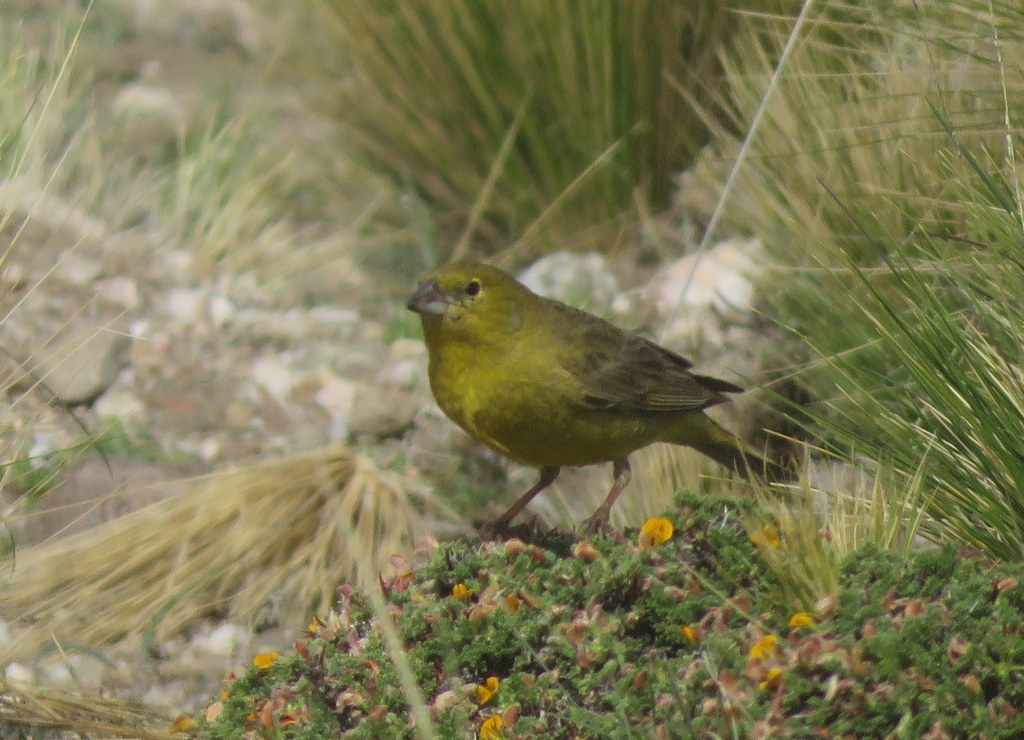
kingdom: Animalia
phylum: Chordata
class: Aves
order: Passeriformes
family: Thraupidae
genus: Sicalis
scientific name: Sicalis olivascens
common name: Greenish yellow finch
